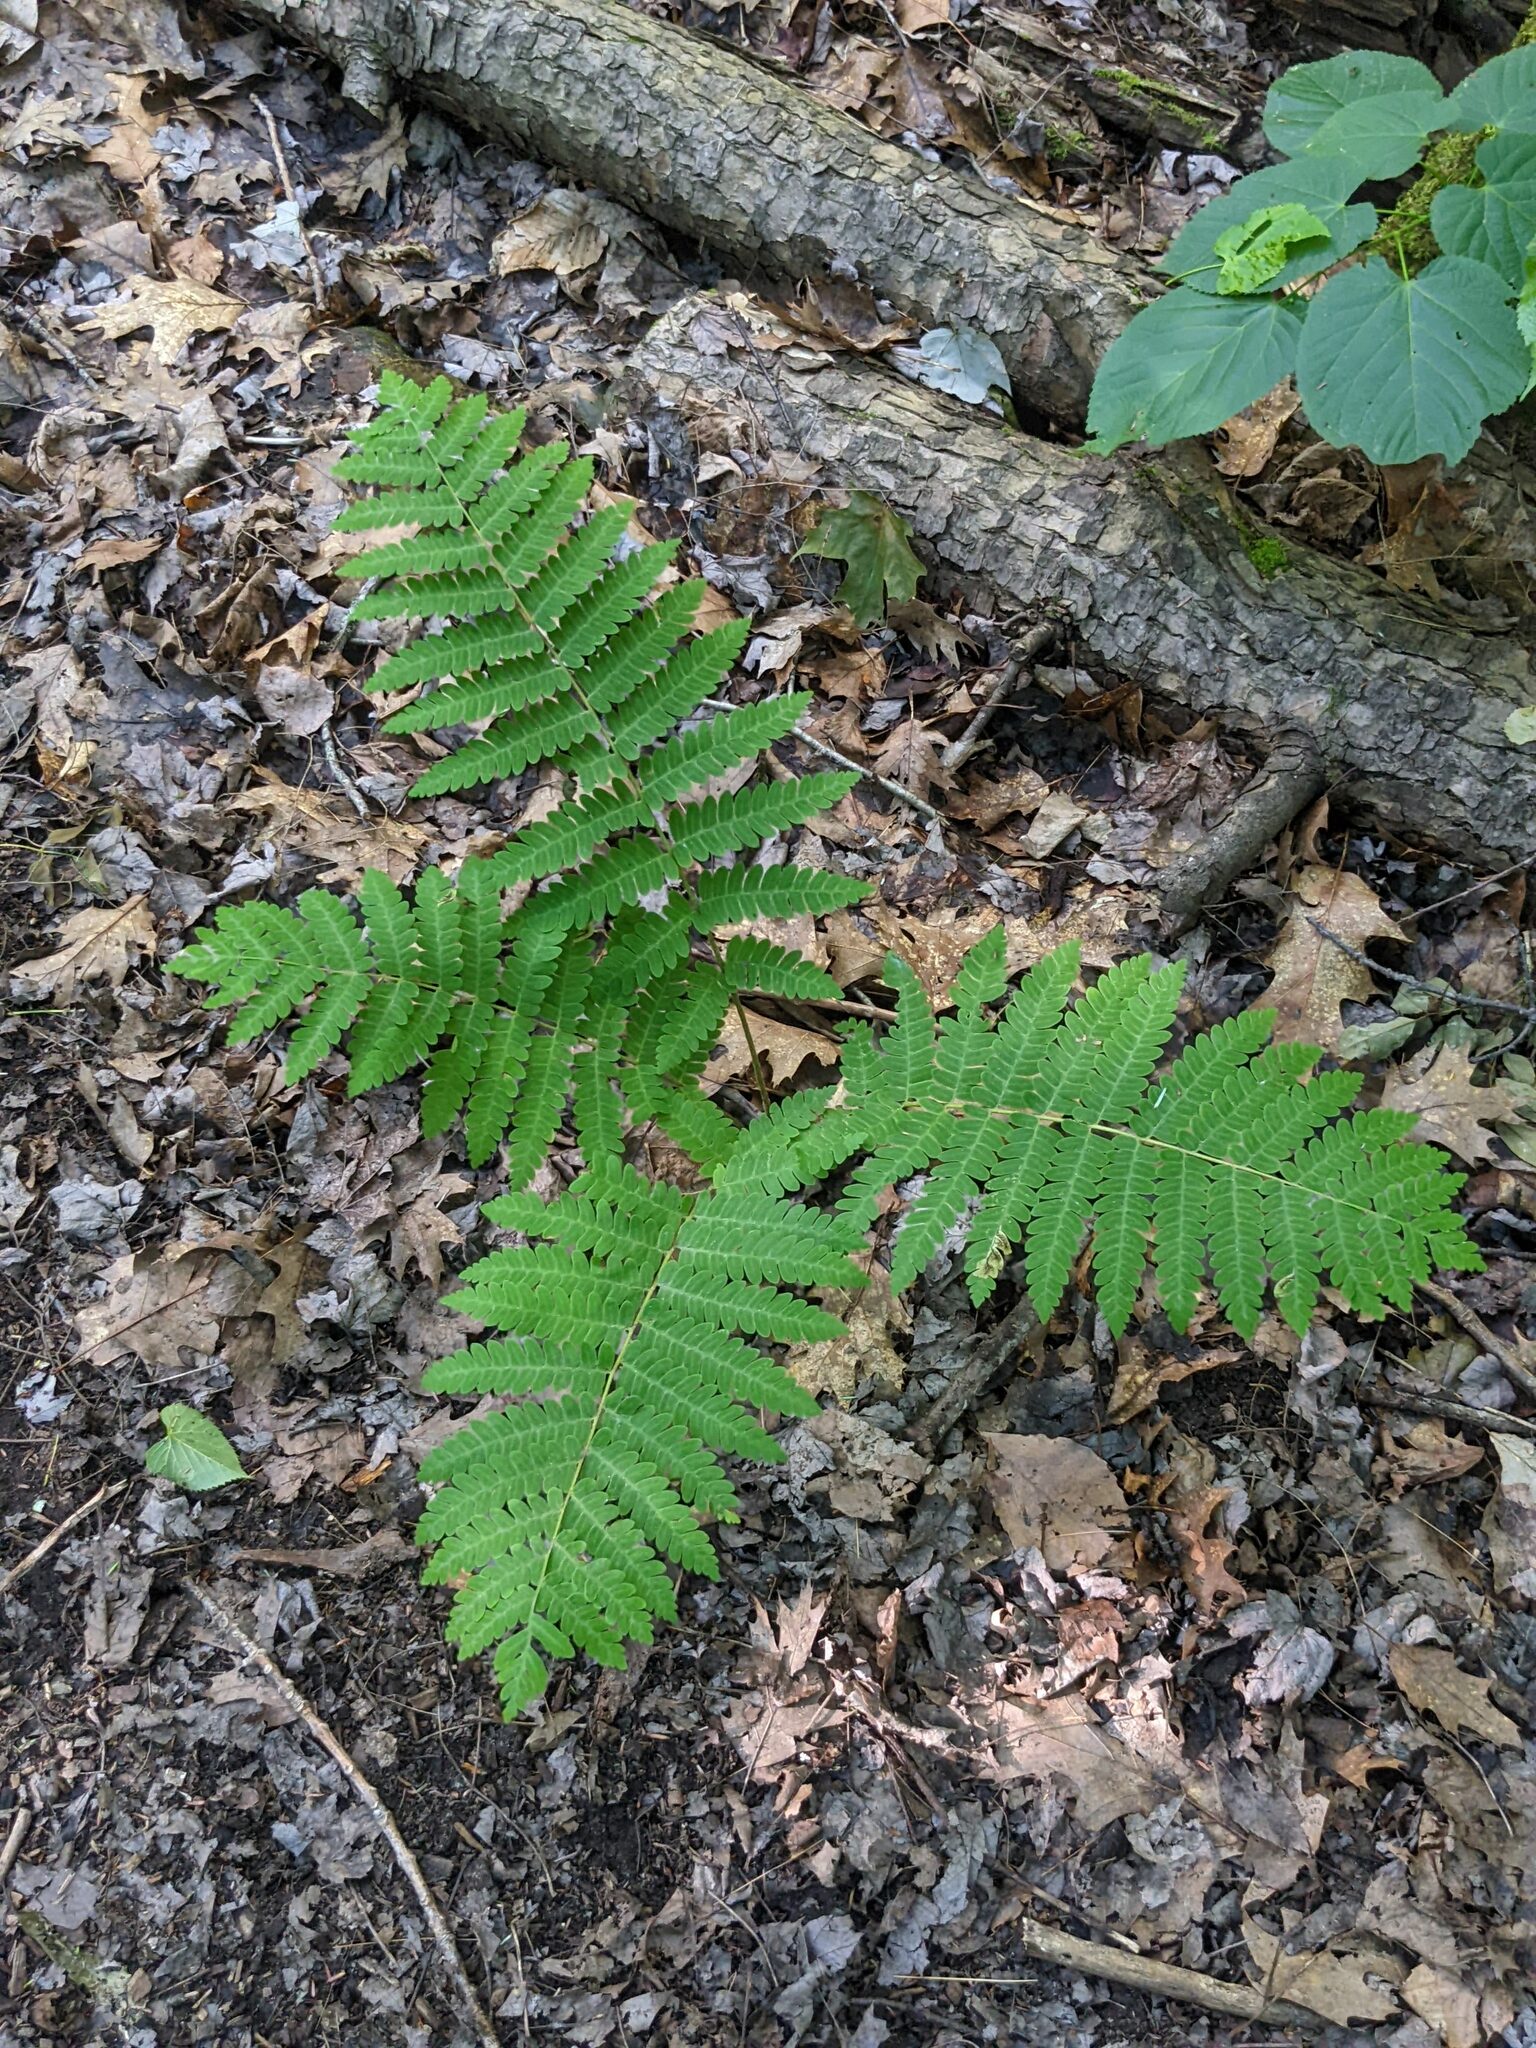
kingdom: Plantae
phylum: Tracheophyta
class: Polypodiopsida
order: Osmundales
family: Osmundaceae
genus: Claytosmunda
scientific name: Claytosmunda claytoniana
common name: Clayton's fern
